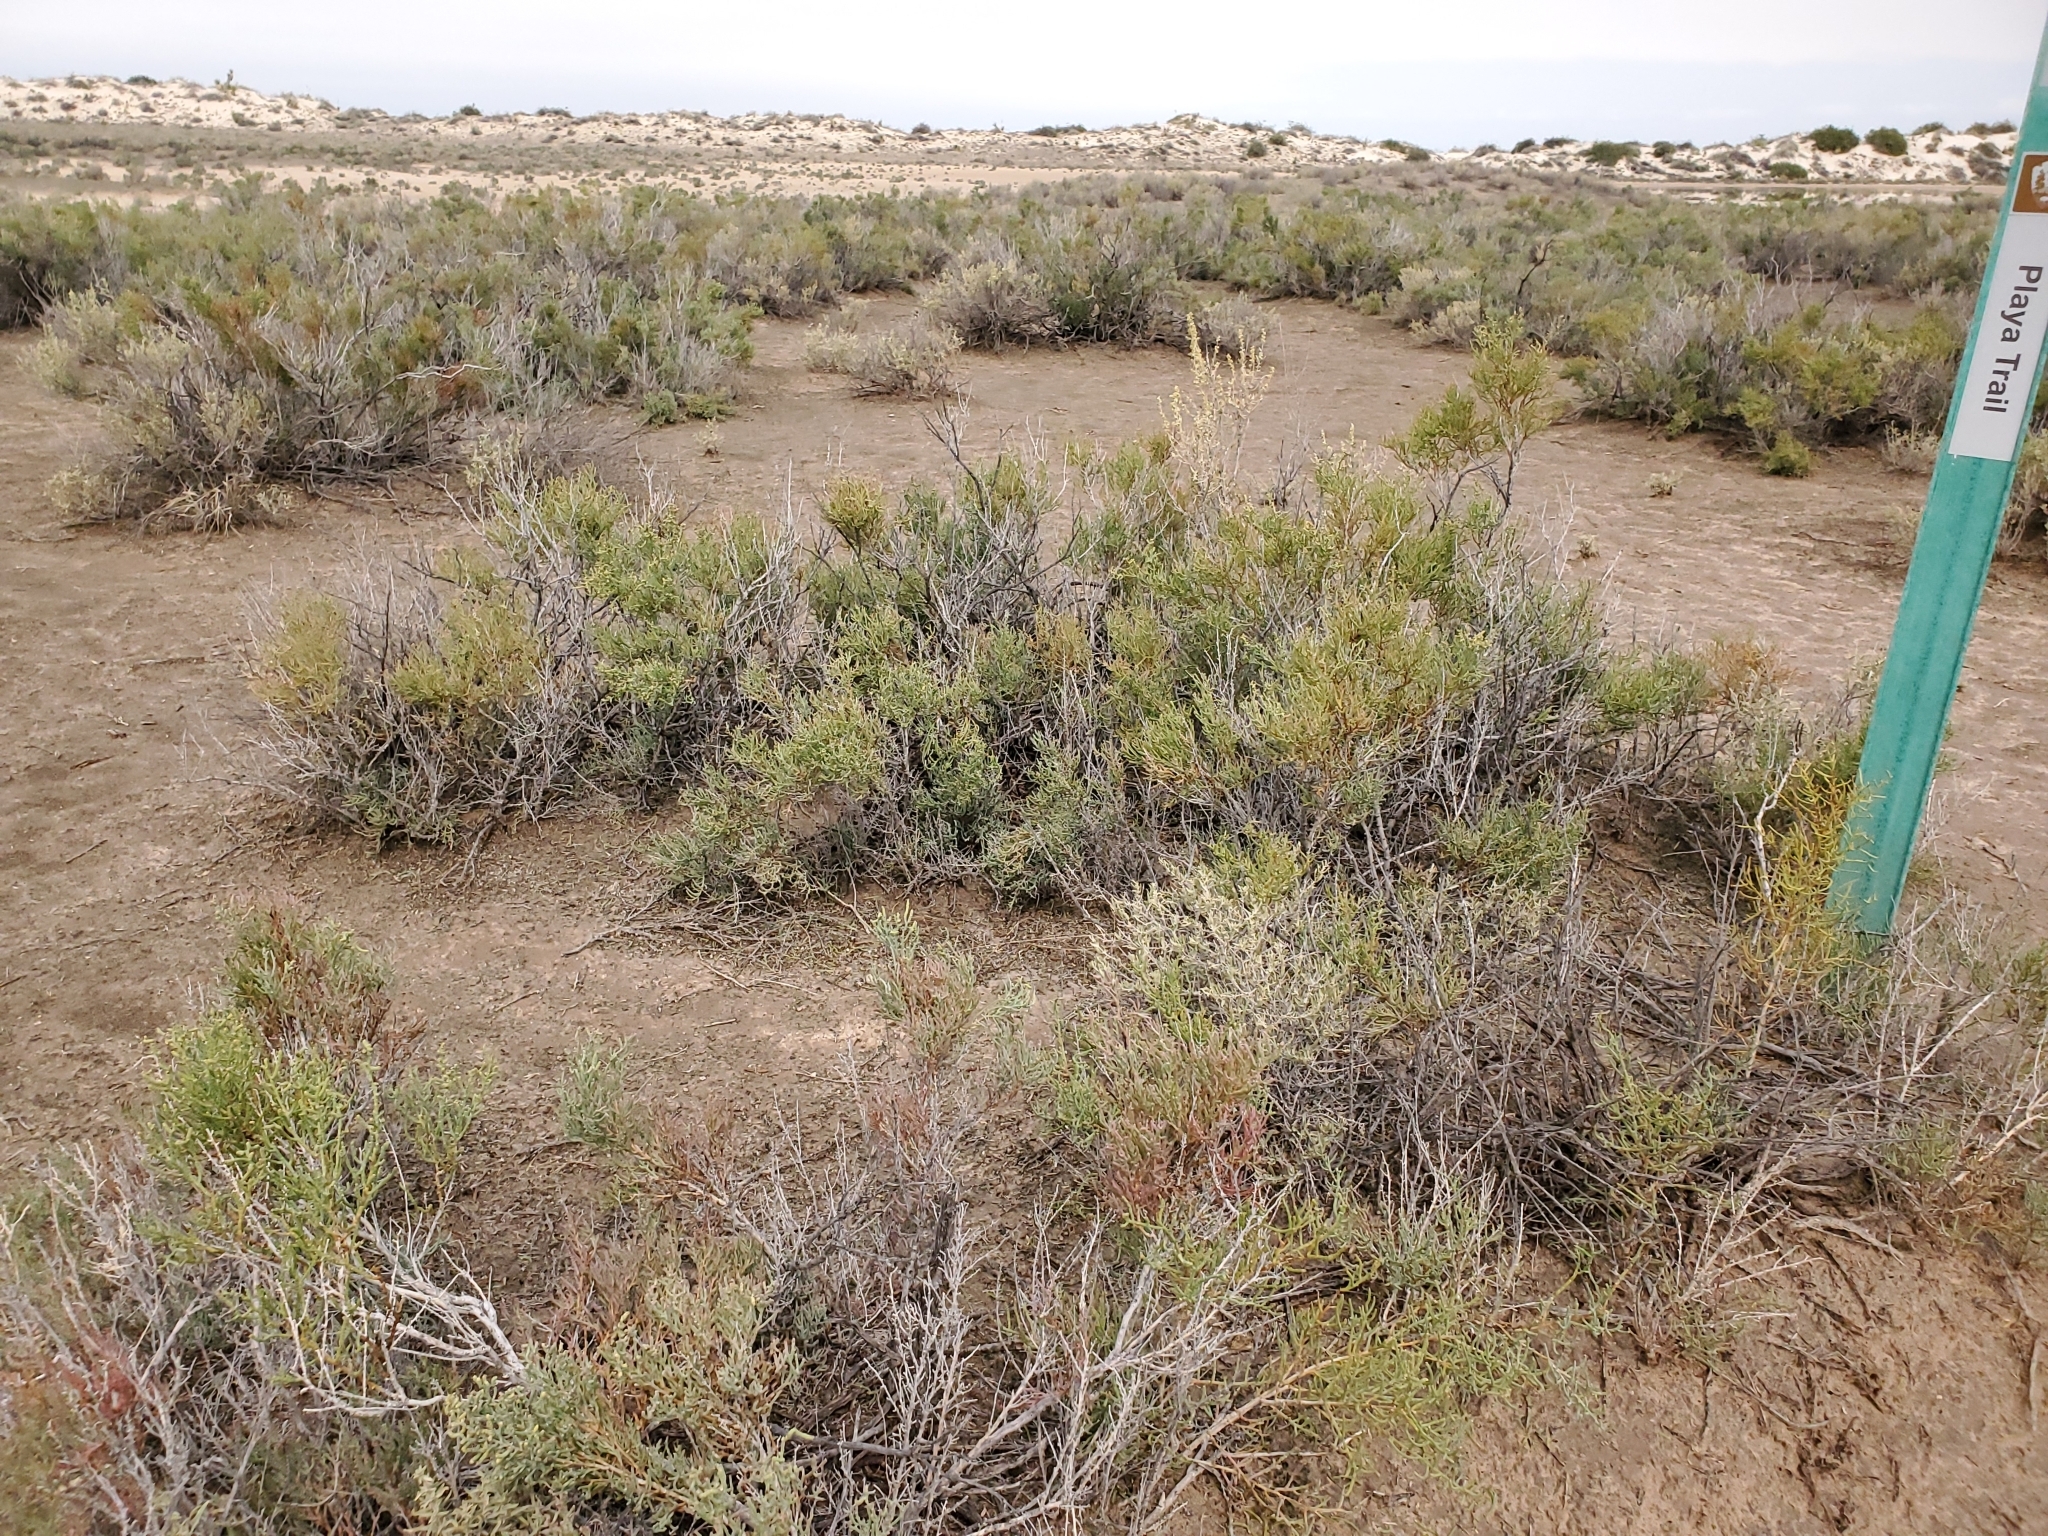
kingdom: Plantae
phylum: Tracheophyta
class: Magnoliopsida
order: Caryophyllales
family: Amaranthaceae
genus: Allenrolfea
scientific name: Allenrolfea occidentalis
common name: Iodine-bush
